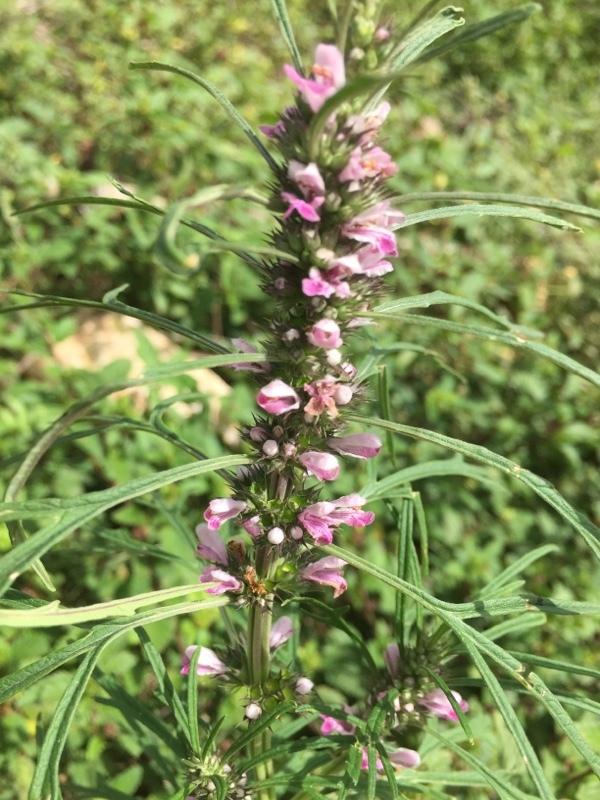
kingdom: Plantae
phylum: Tracheophyta
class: Magnoliopsida
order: Lamiales
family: Lamiaceae
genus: Leonurus
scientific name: Leonurus japonicus
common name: Honeyweed
